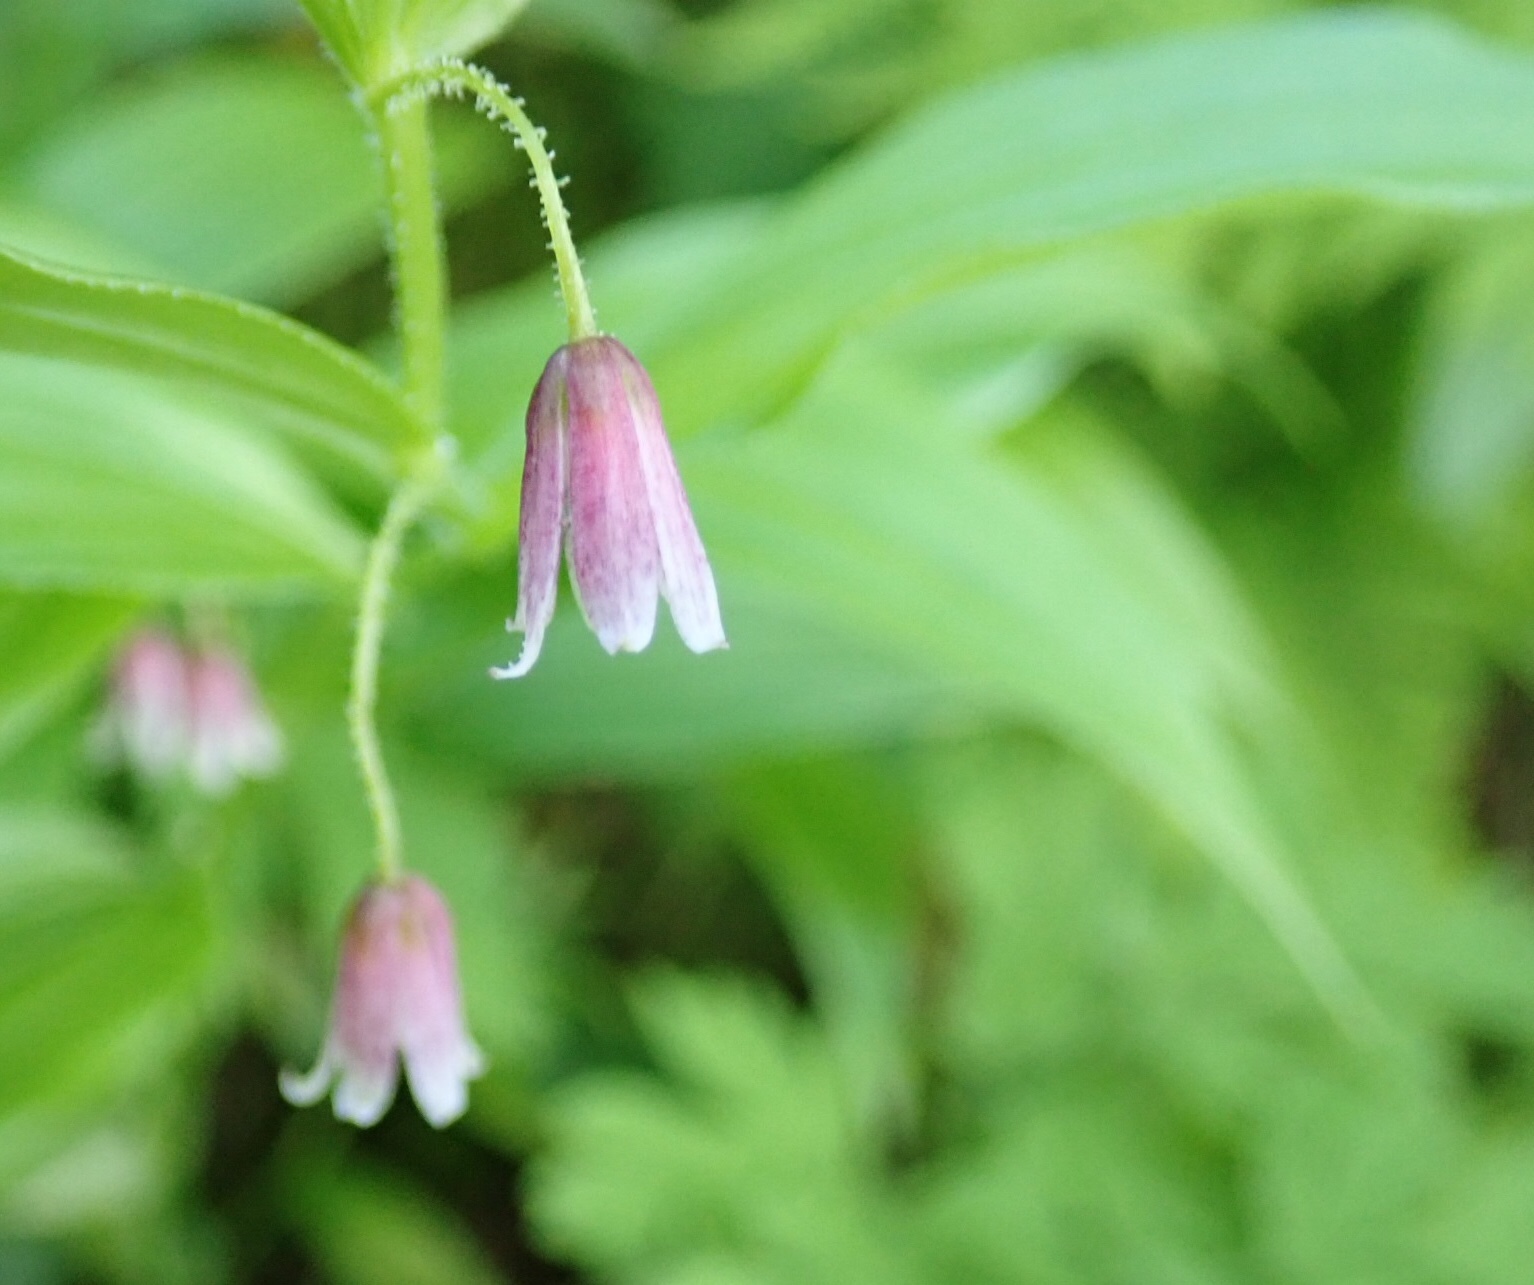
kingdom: Plantae
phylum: Tracheophyta
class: Liliopsida
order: Liliales
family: Liliaceae
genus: Streptopus
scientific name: Streptopus lanceolatus
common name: Rose mandarin
